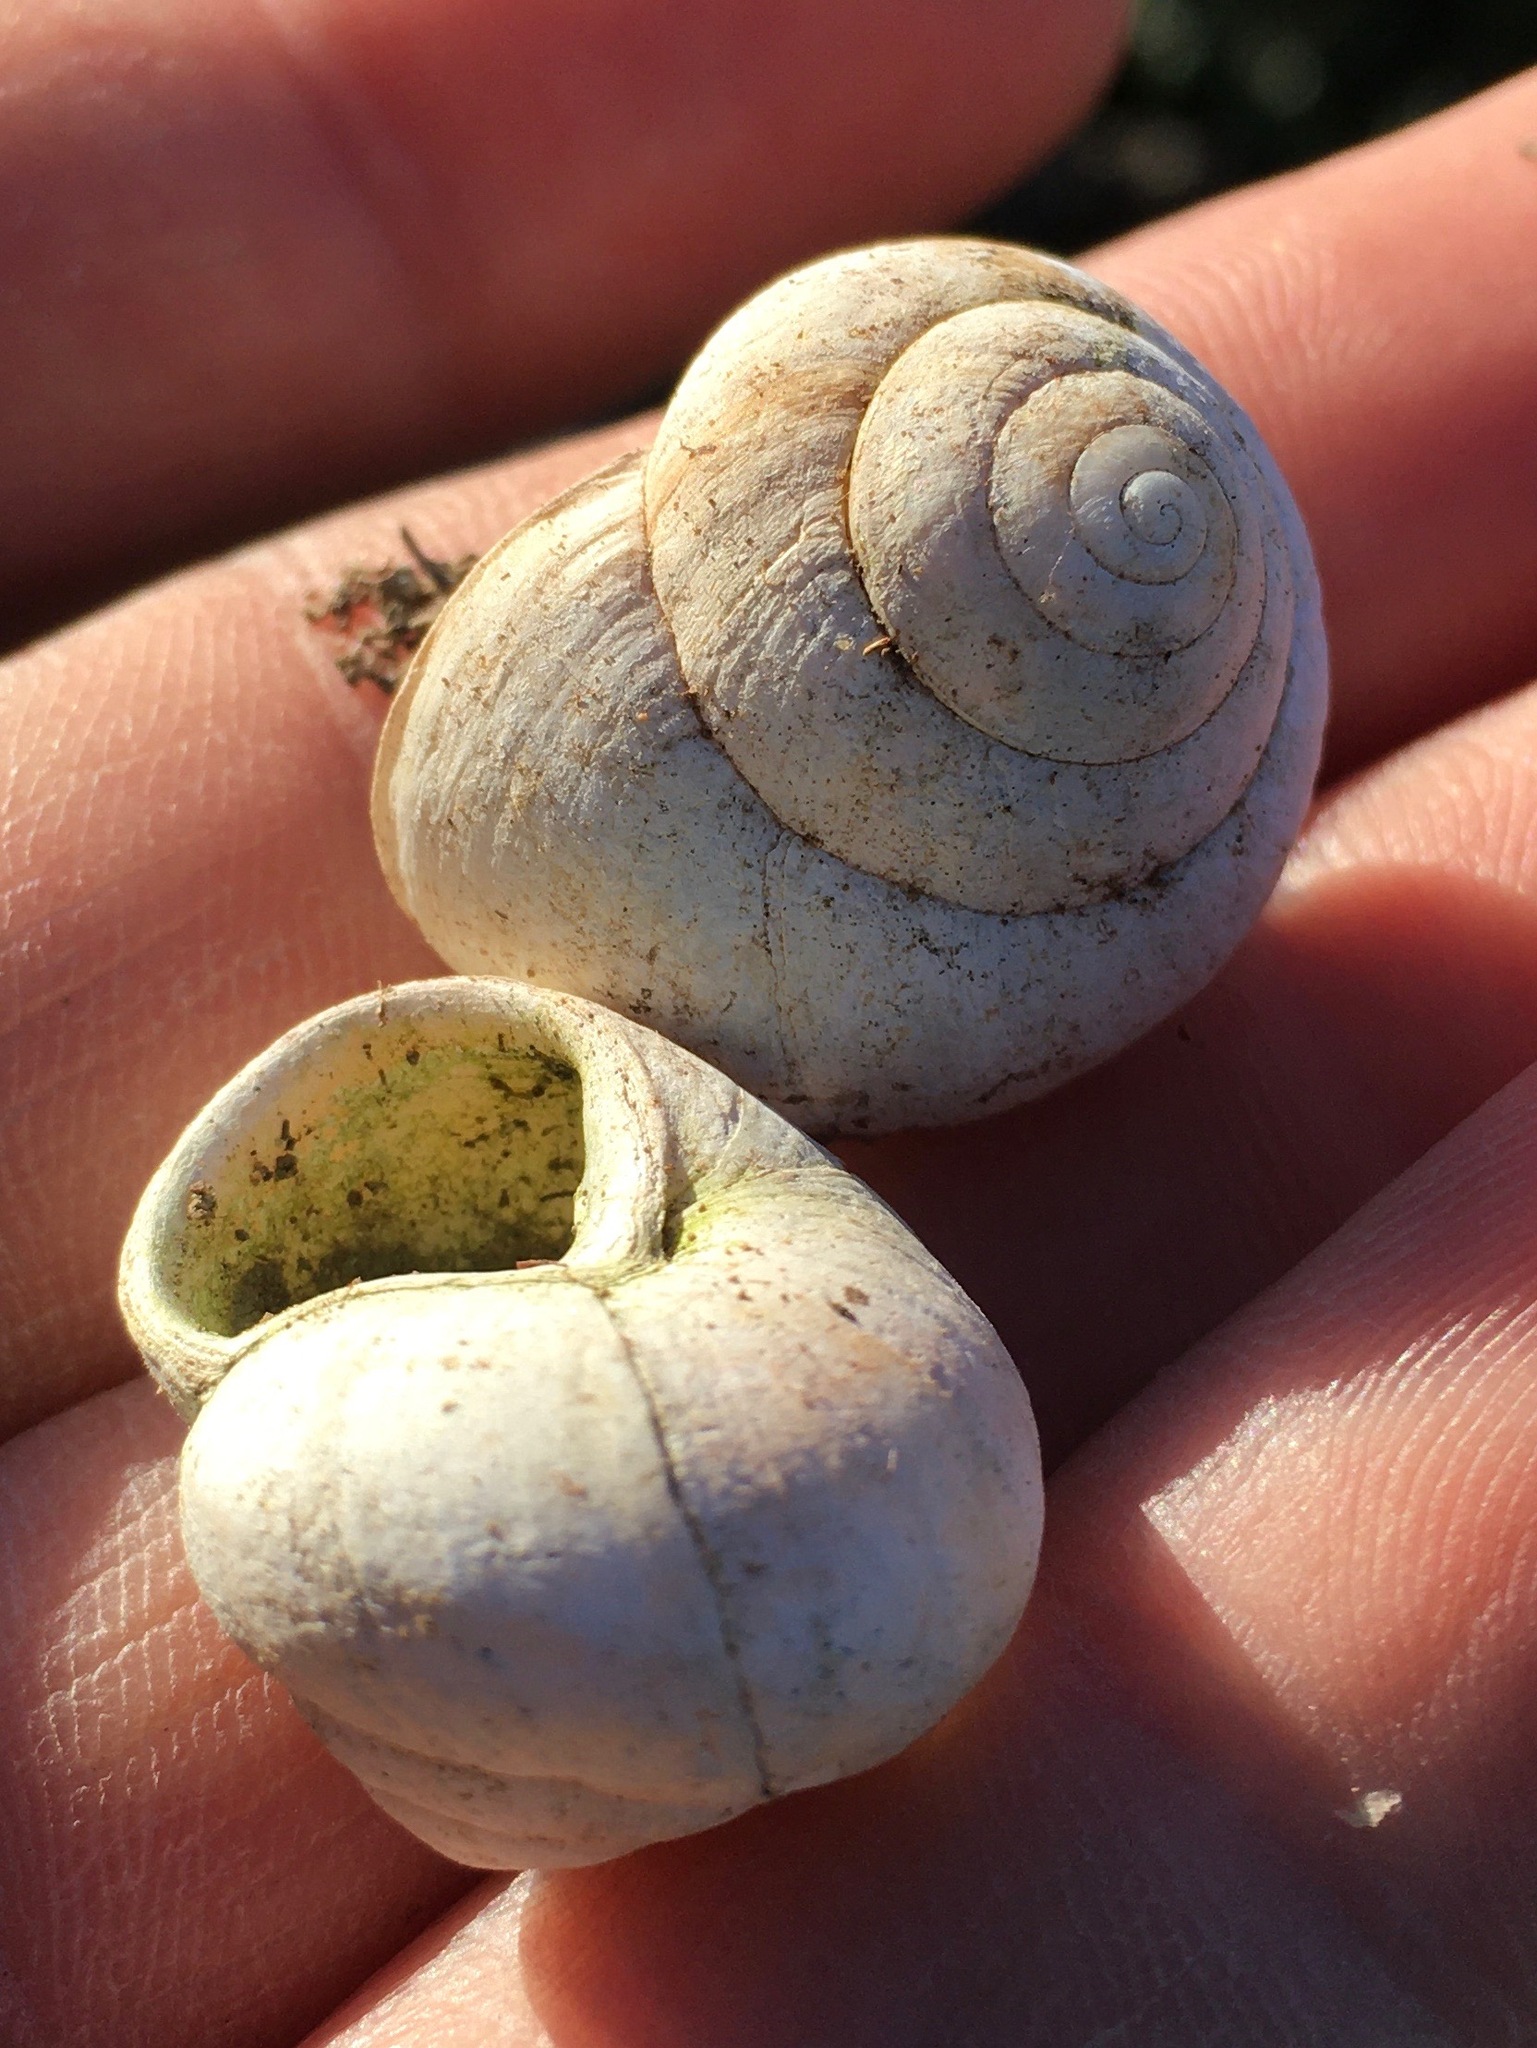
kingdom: Animalia
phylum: Mollusca
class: Gastropoda
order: Stylommatophora
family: Xanthonychidae
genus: Xerarionta
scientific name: Xerarionta tryoni
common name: Bicolor cactus snail
